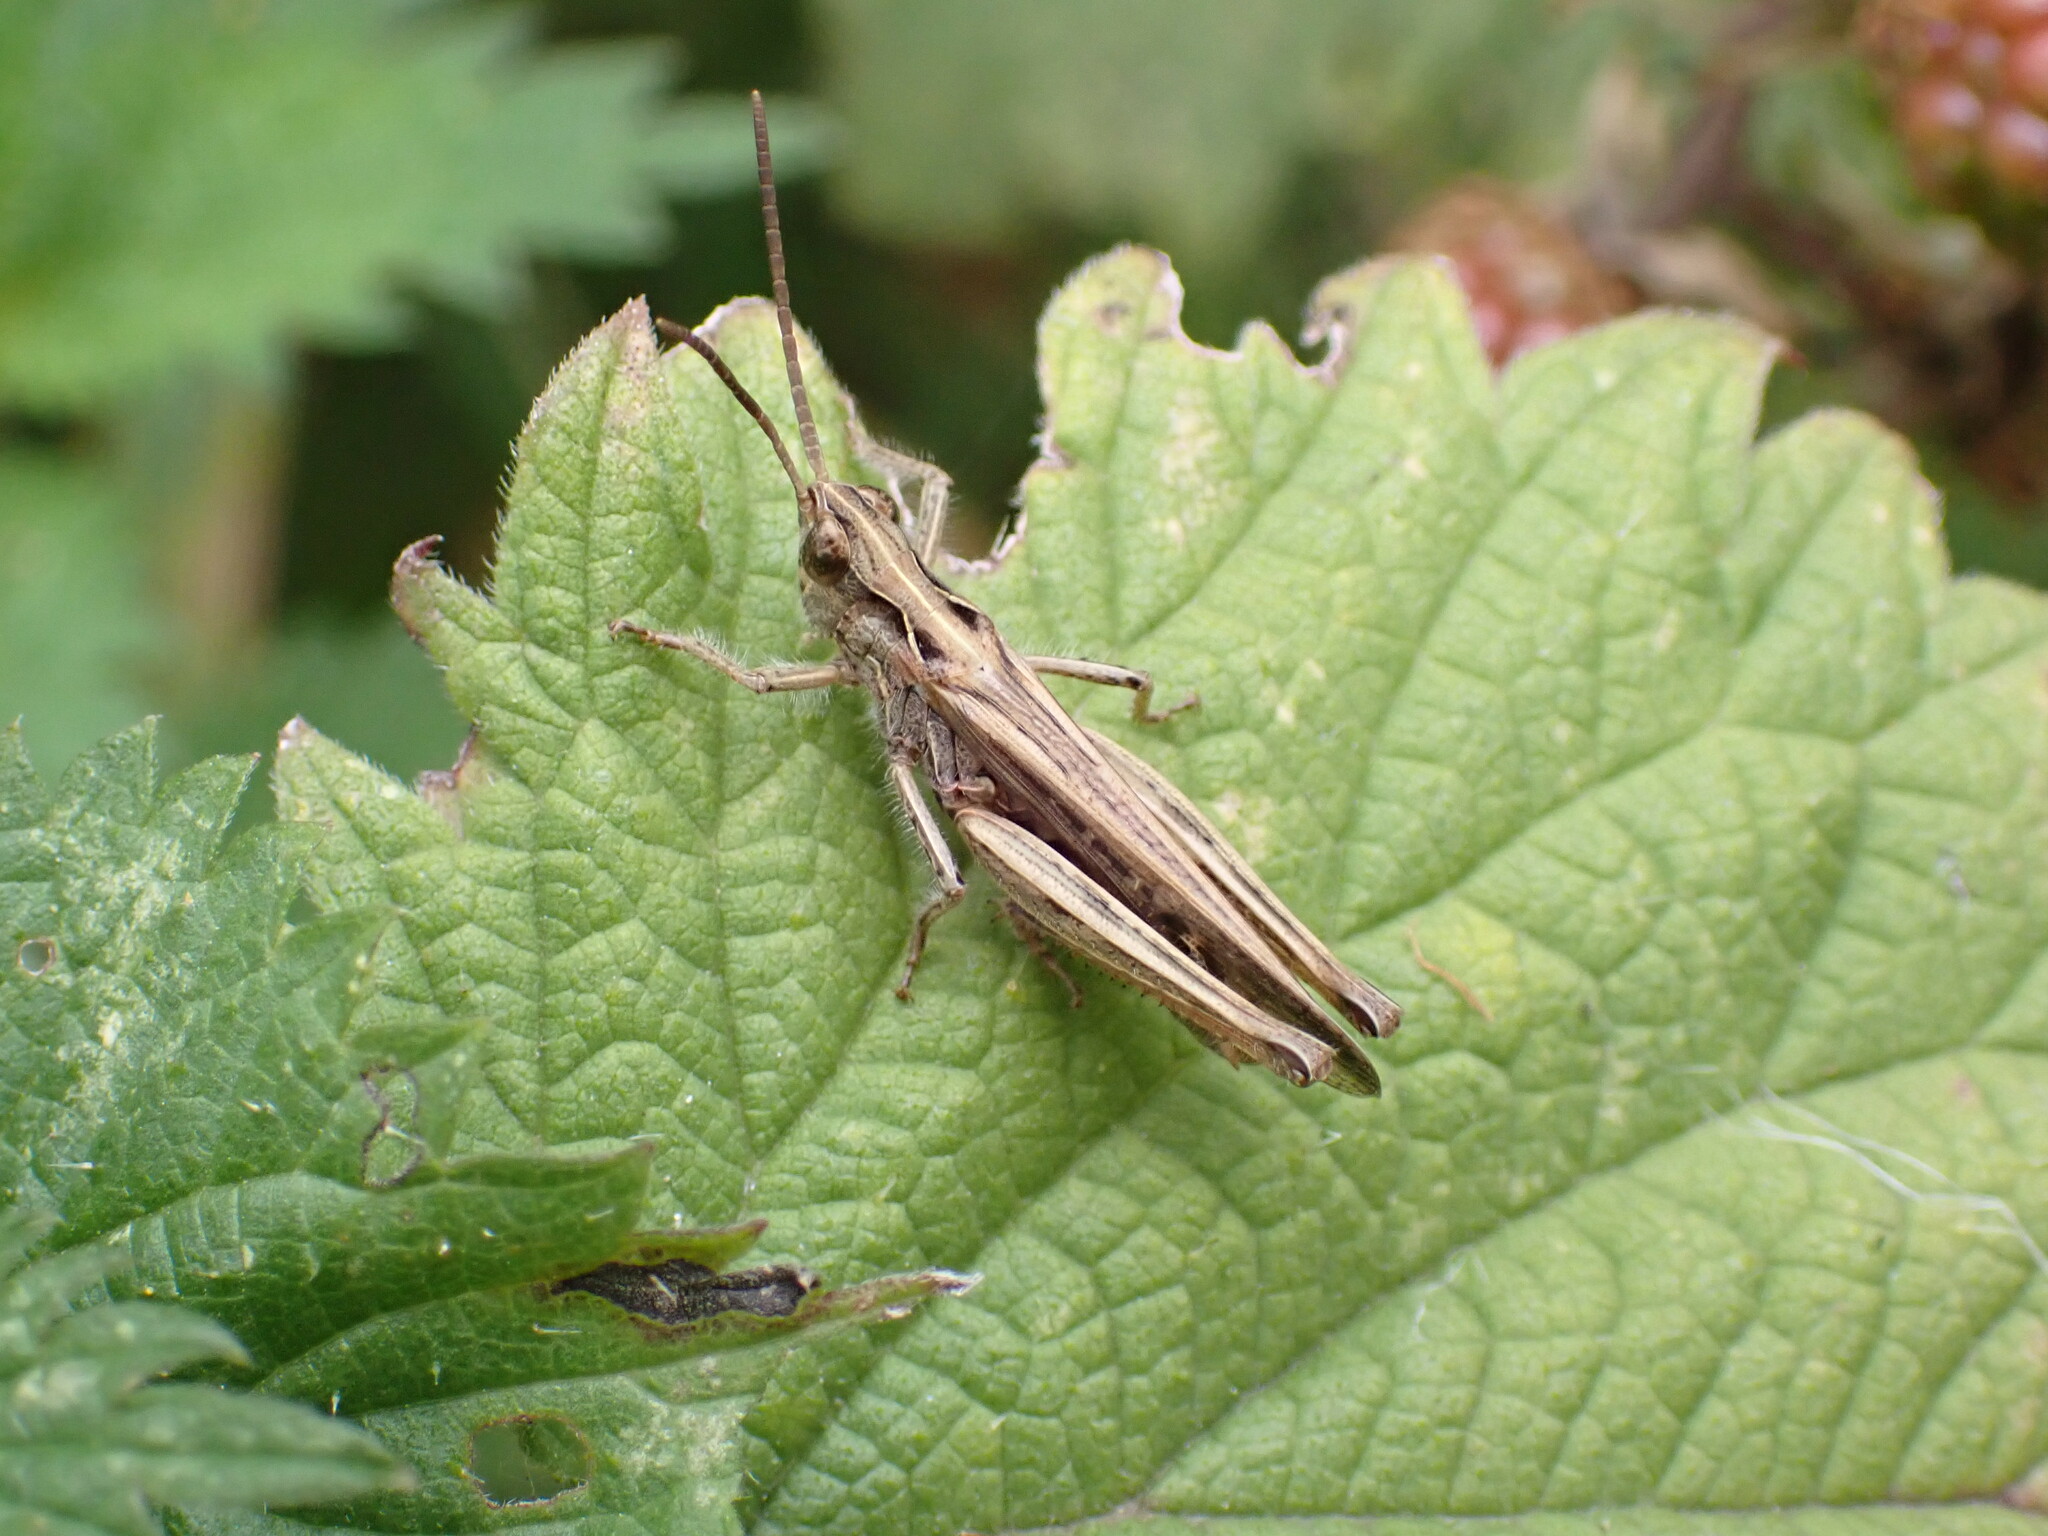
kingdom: Animalia
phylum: Arthropoda
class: Insecta
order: Orthoptera
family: Acrididae
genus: Chorthippus
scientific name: Chorthippus brunneus
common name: Field grasshopper
